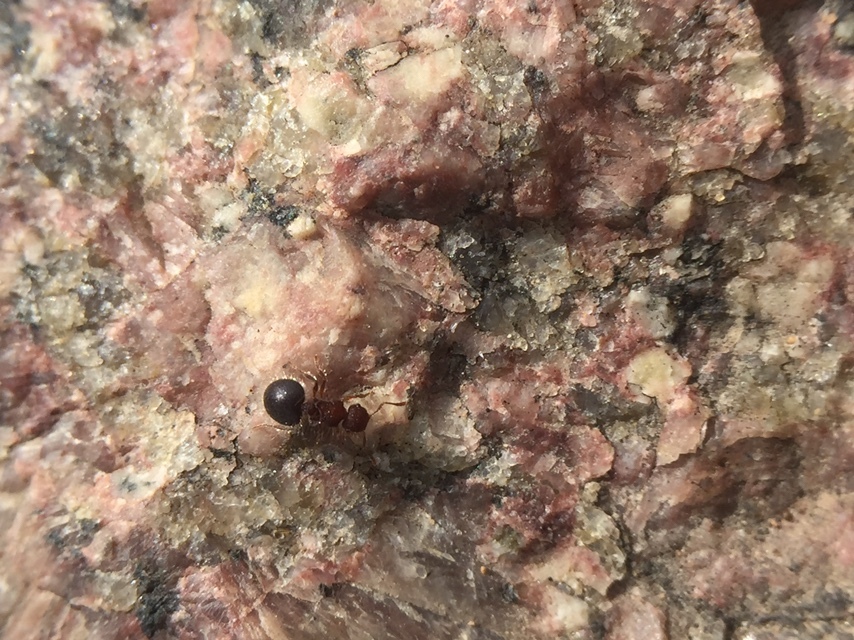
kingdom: Animalia
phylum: Arthropoda
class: Insecta
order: Hymenoptera
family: Formicidae
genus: Meranoplus
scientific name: Meranoplus bicolor
